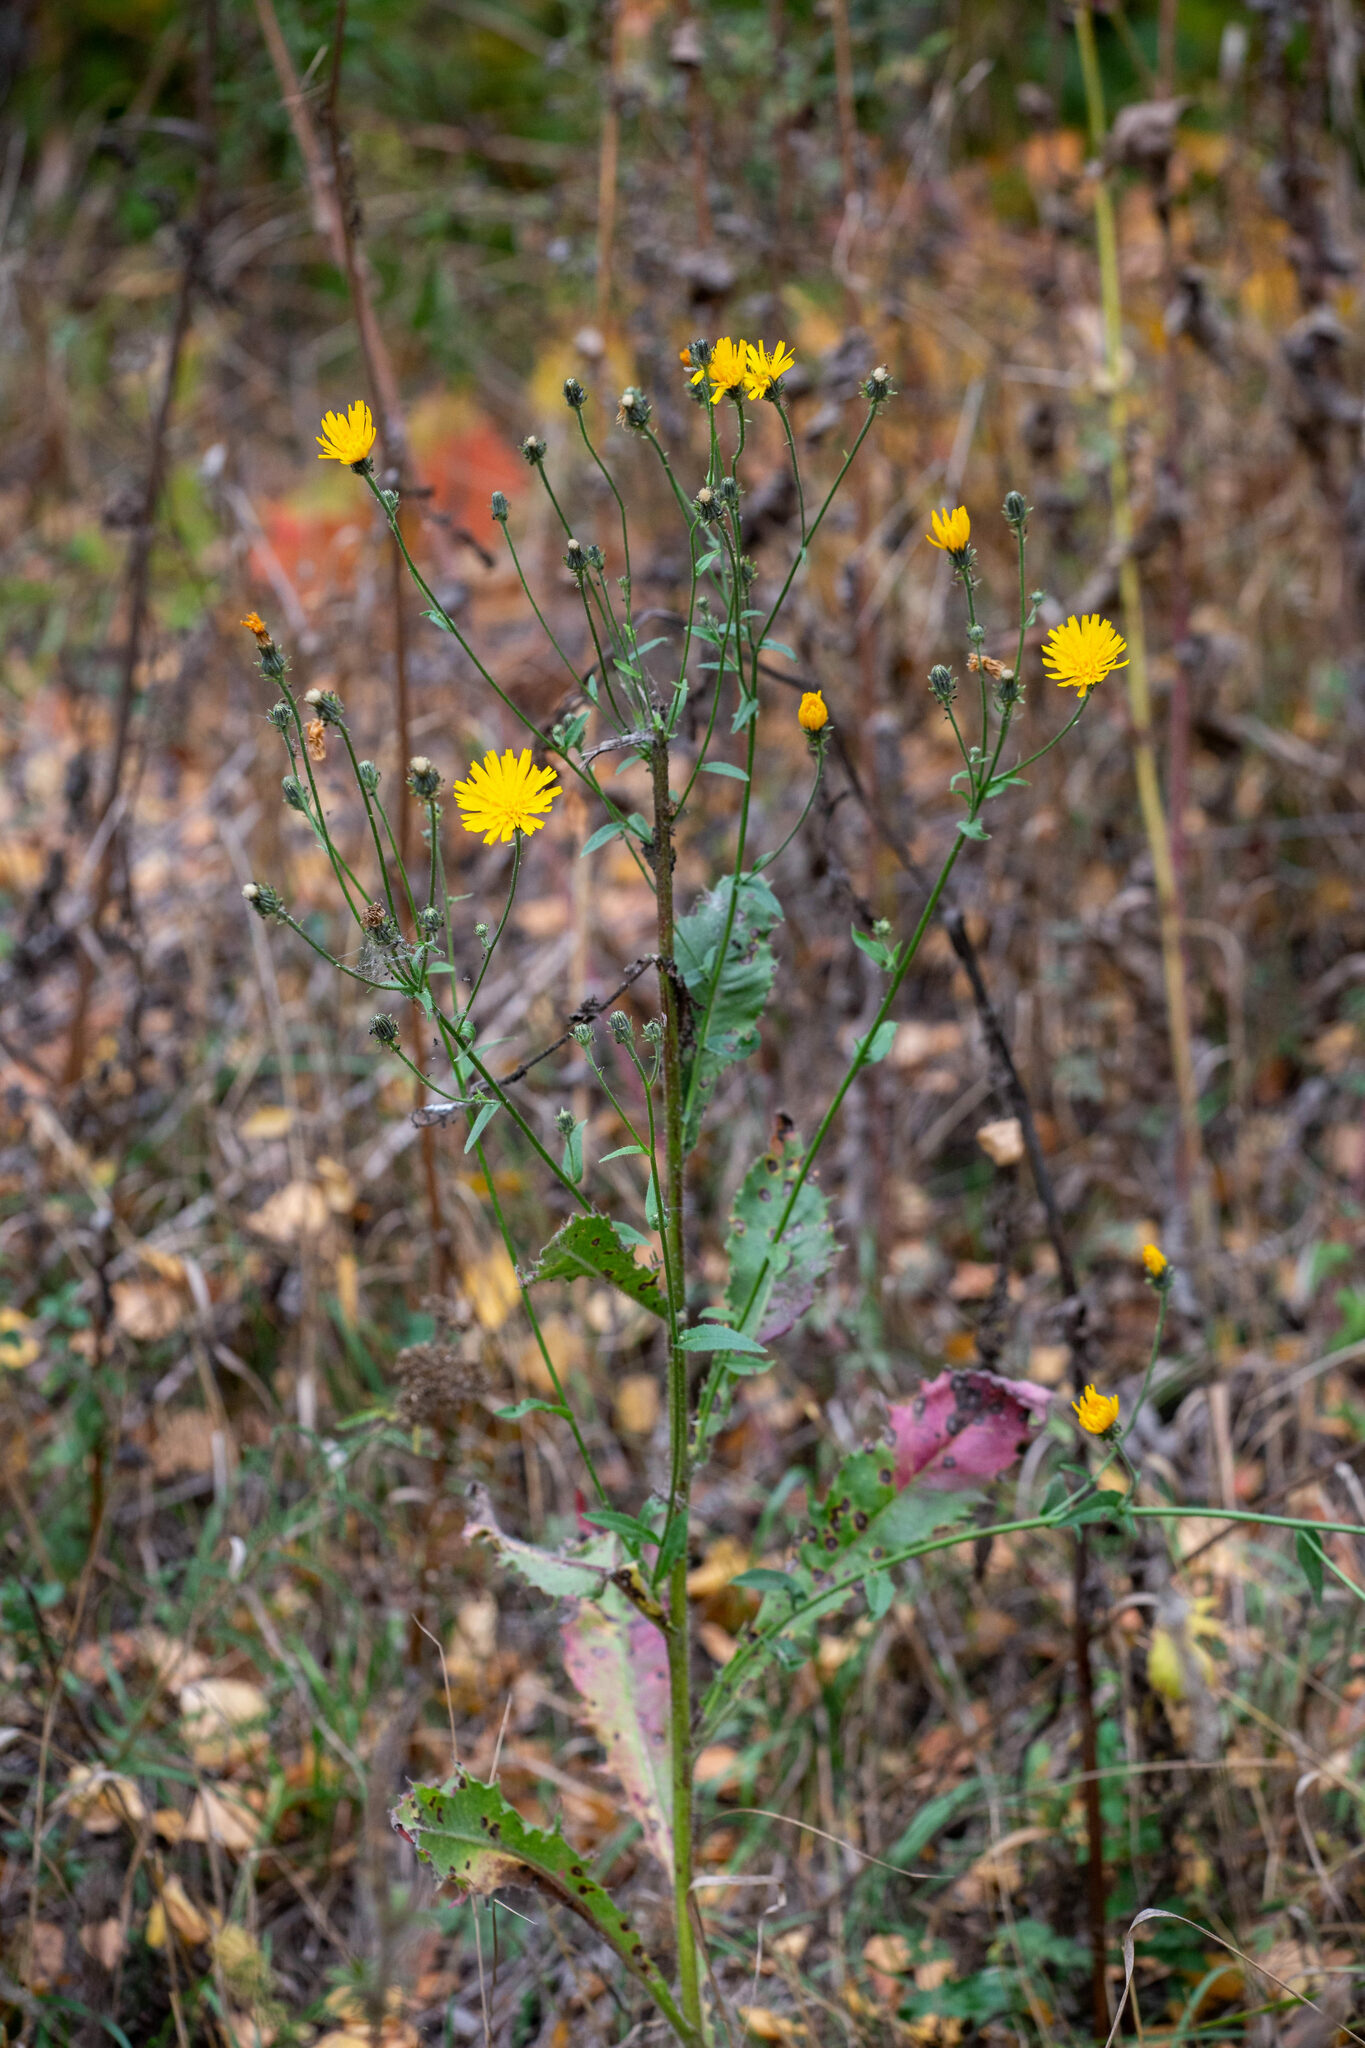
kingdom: Plantae
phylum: Tracheophyta
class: Magnoliopsida
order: Asterales
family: Asteraceae
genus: Picris
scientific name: Picris hieracioides
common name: Hawkweed oxtongue
